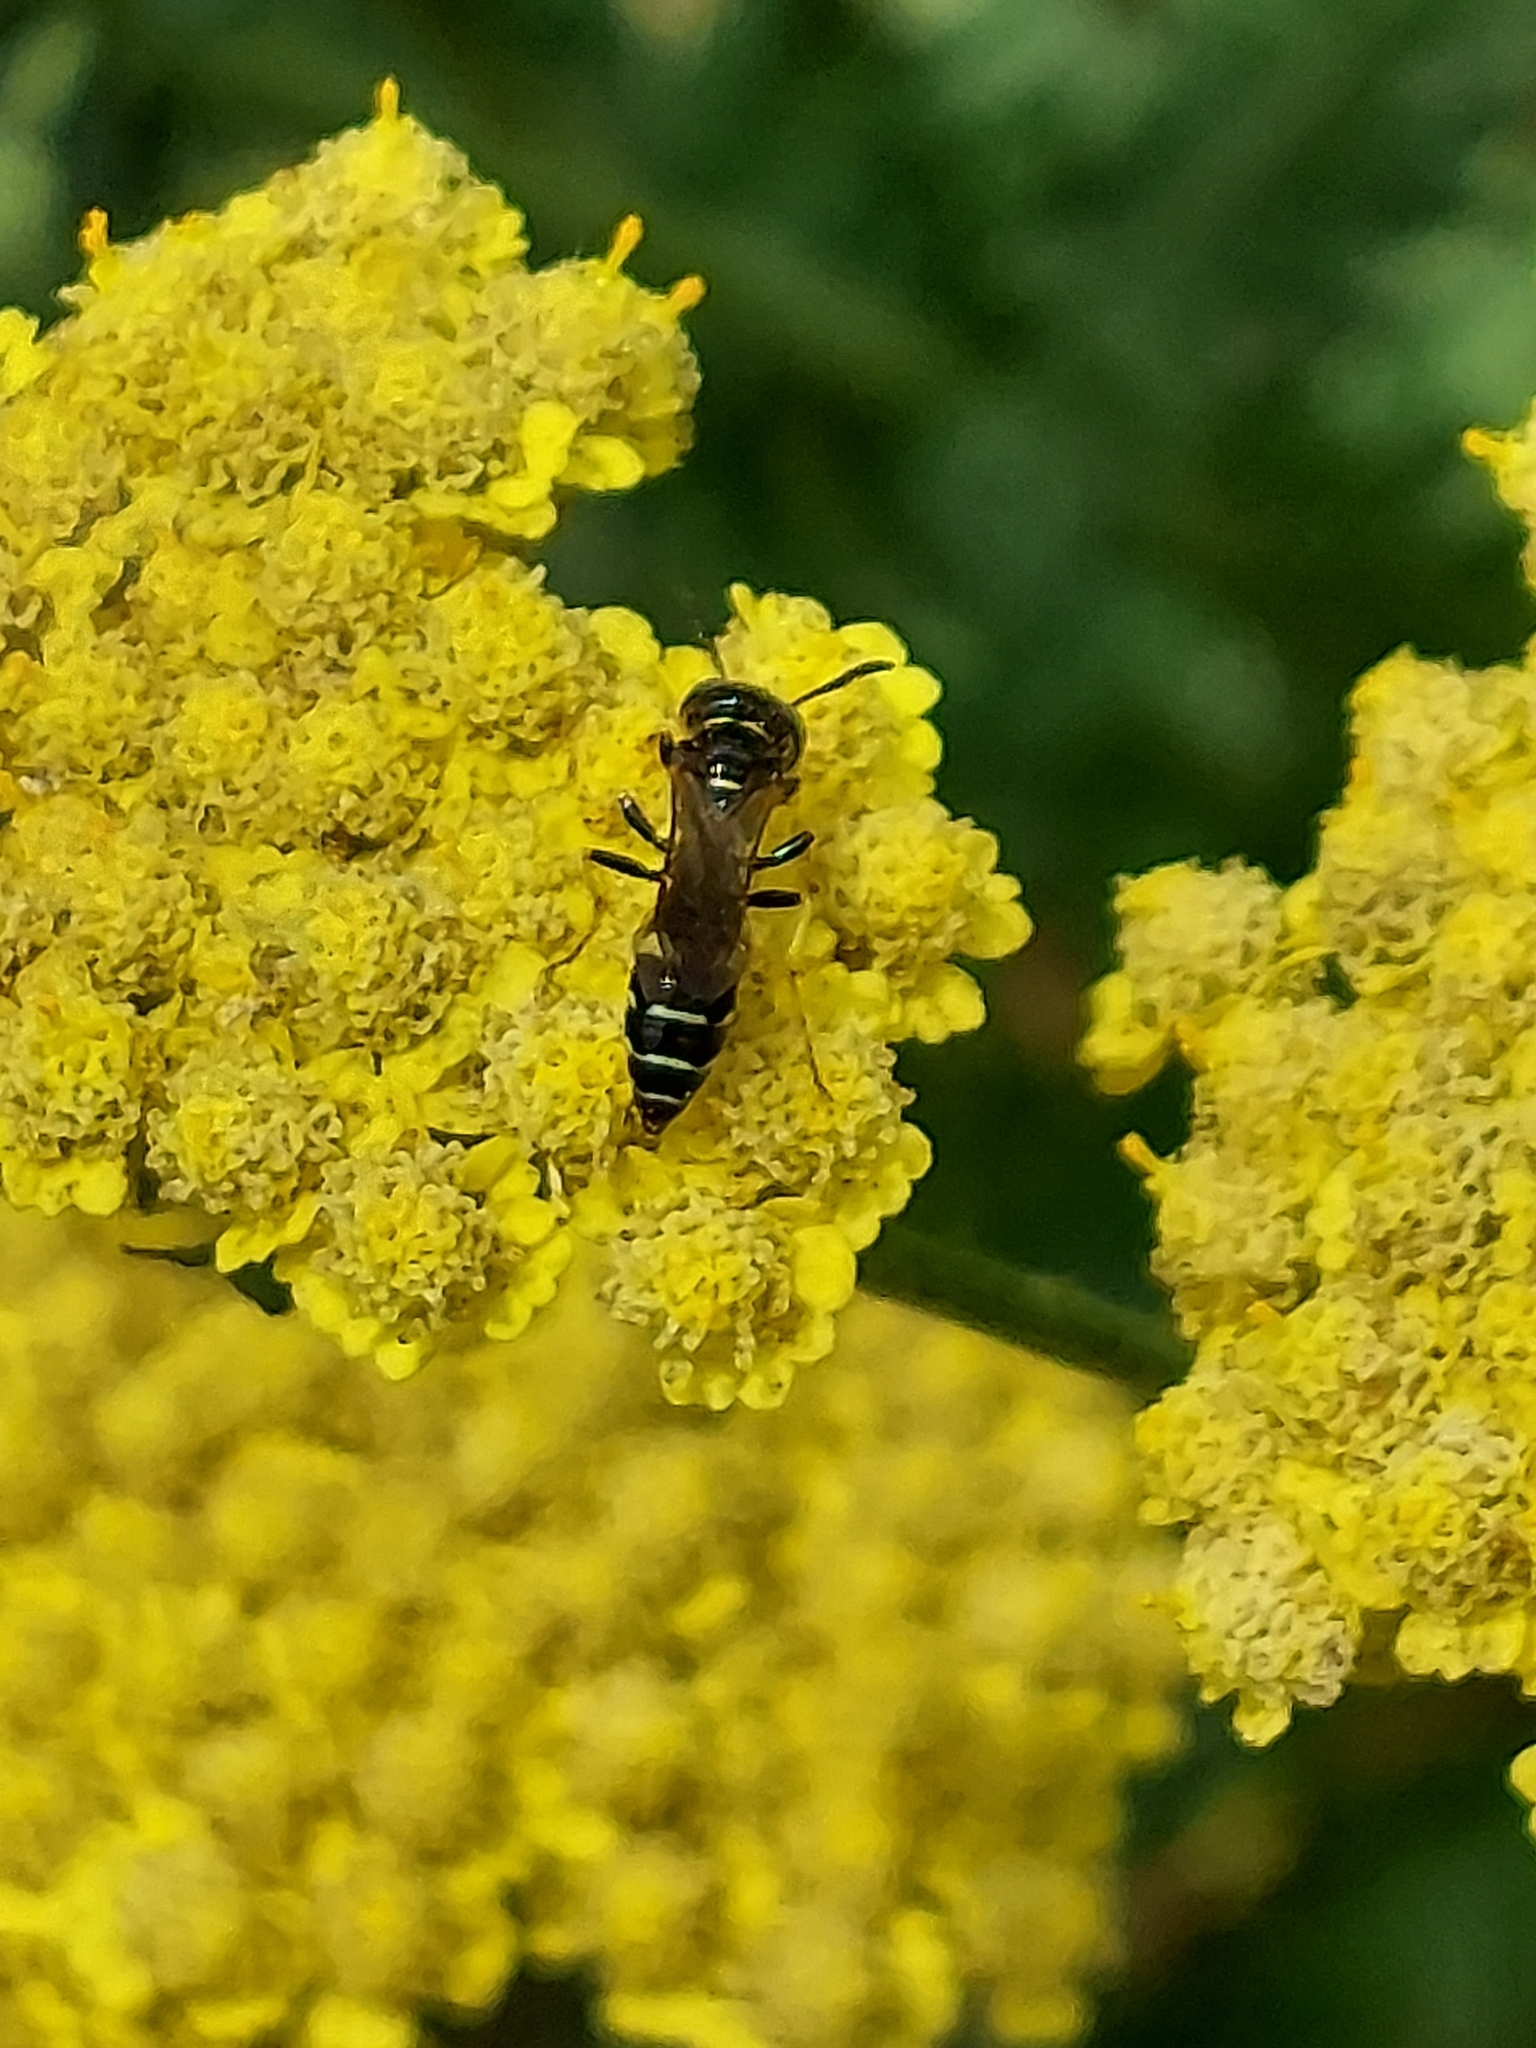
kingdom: Animalia
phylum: Arthropoda
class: Insecta
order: Hymenoptera
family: Crabronidae
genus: Philanthus
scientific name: Philanthus bilunatus
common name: Two moons beewolf
